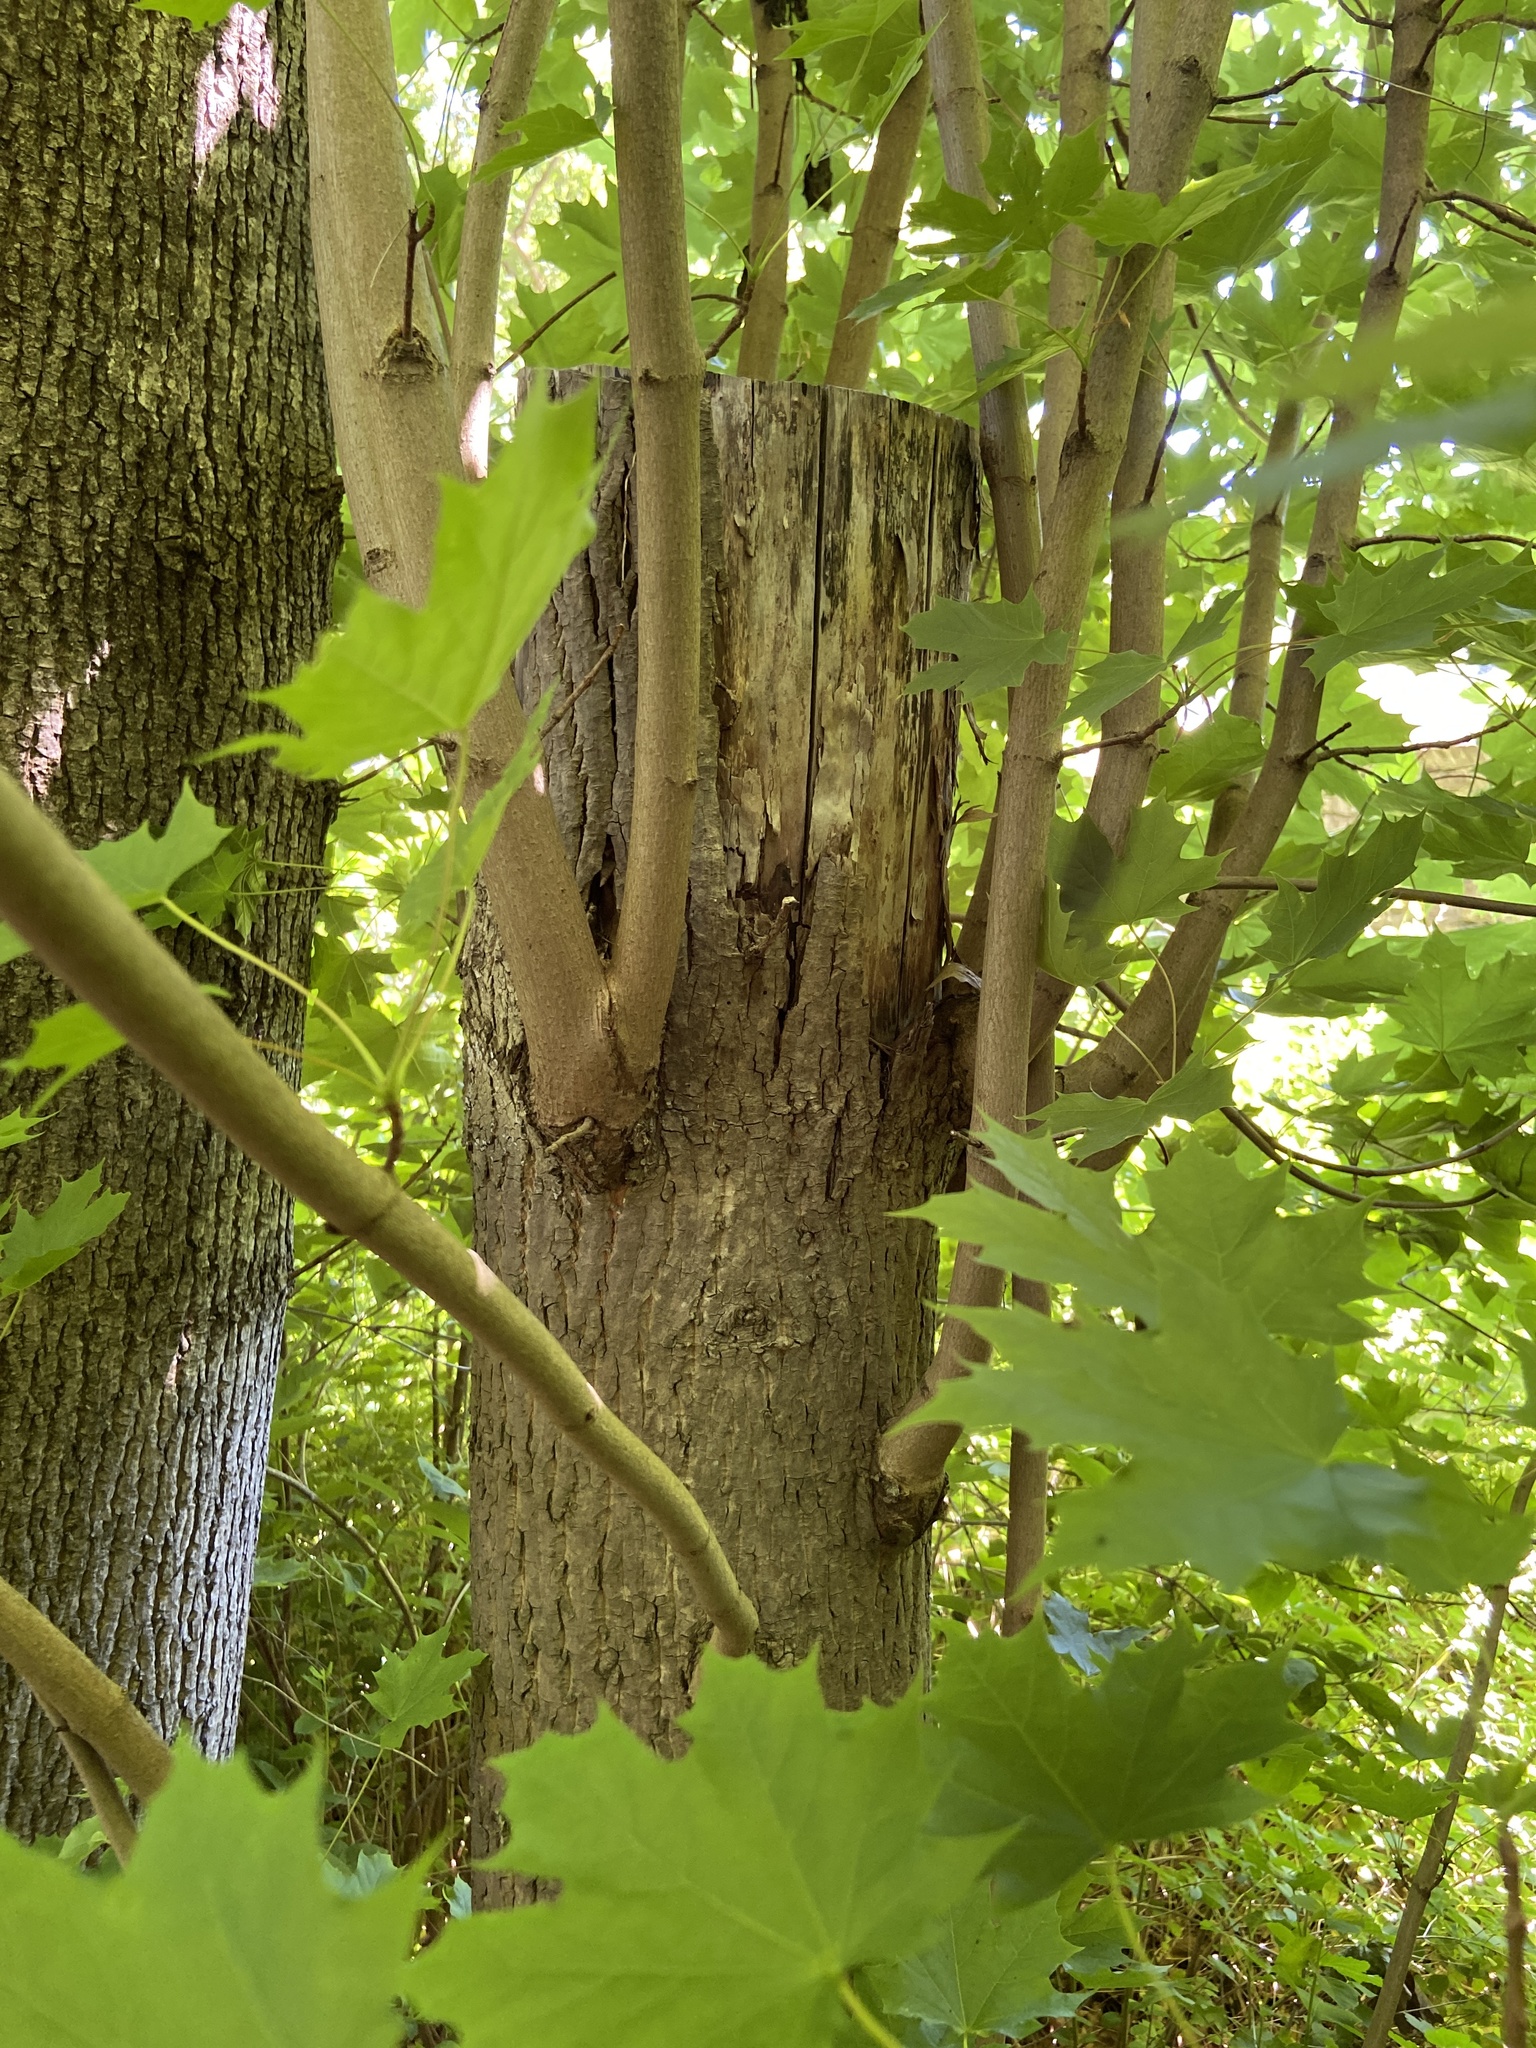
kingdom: Plantae
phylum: Tracheophyta
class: Magnoliopsida
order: Sapindales
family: Sapindaceae
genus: Acer
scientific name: Acer platanoides
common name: Norway maple
